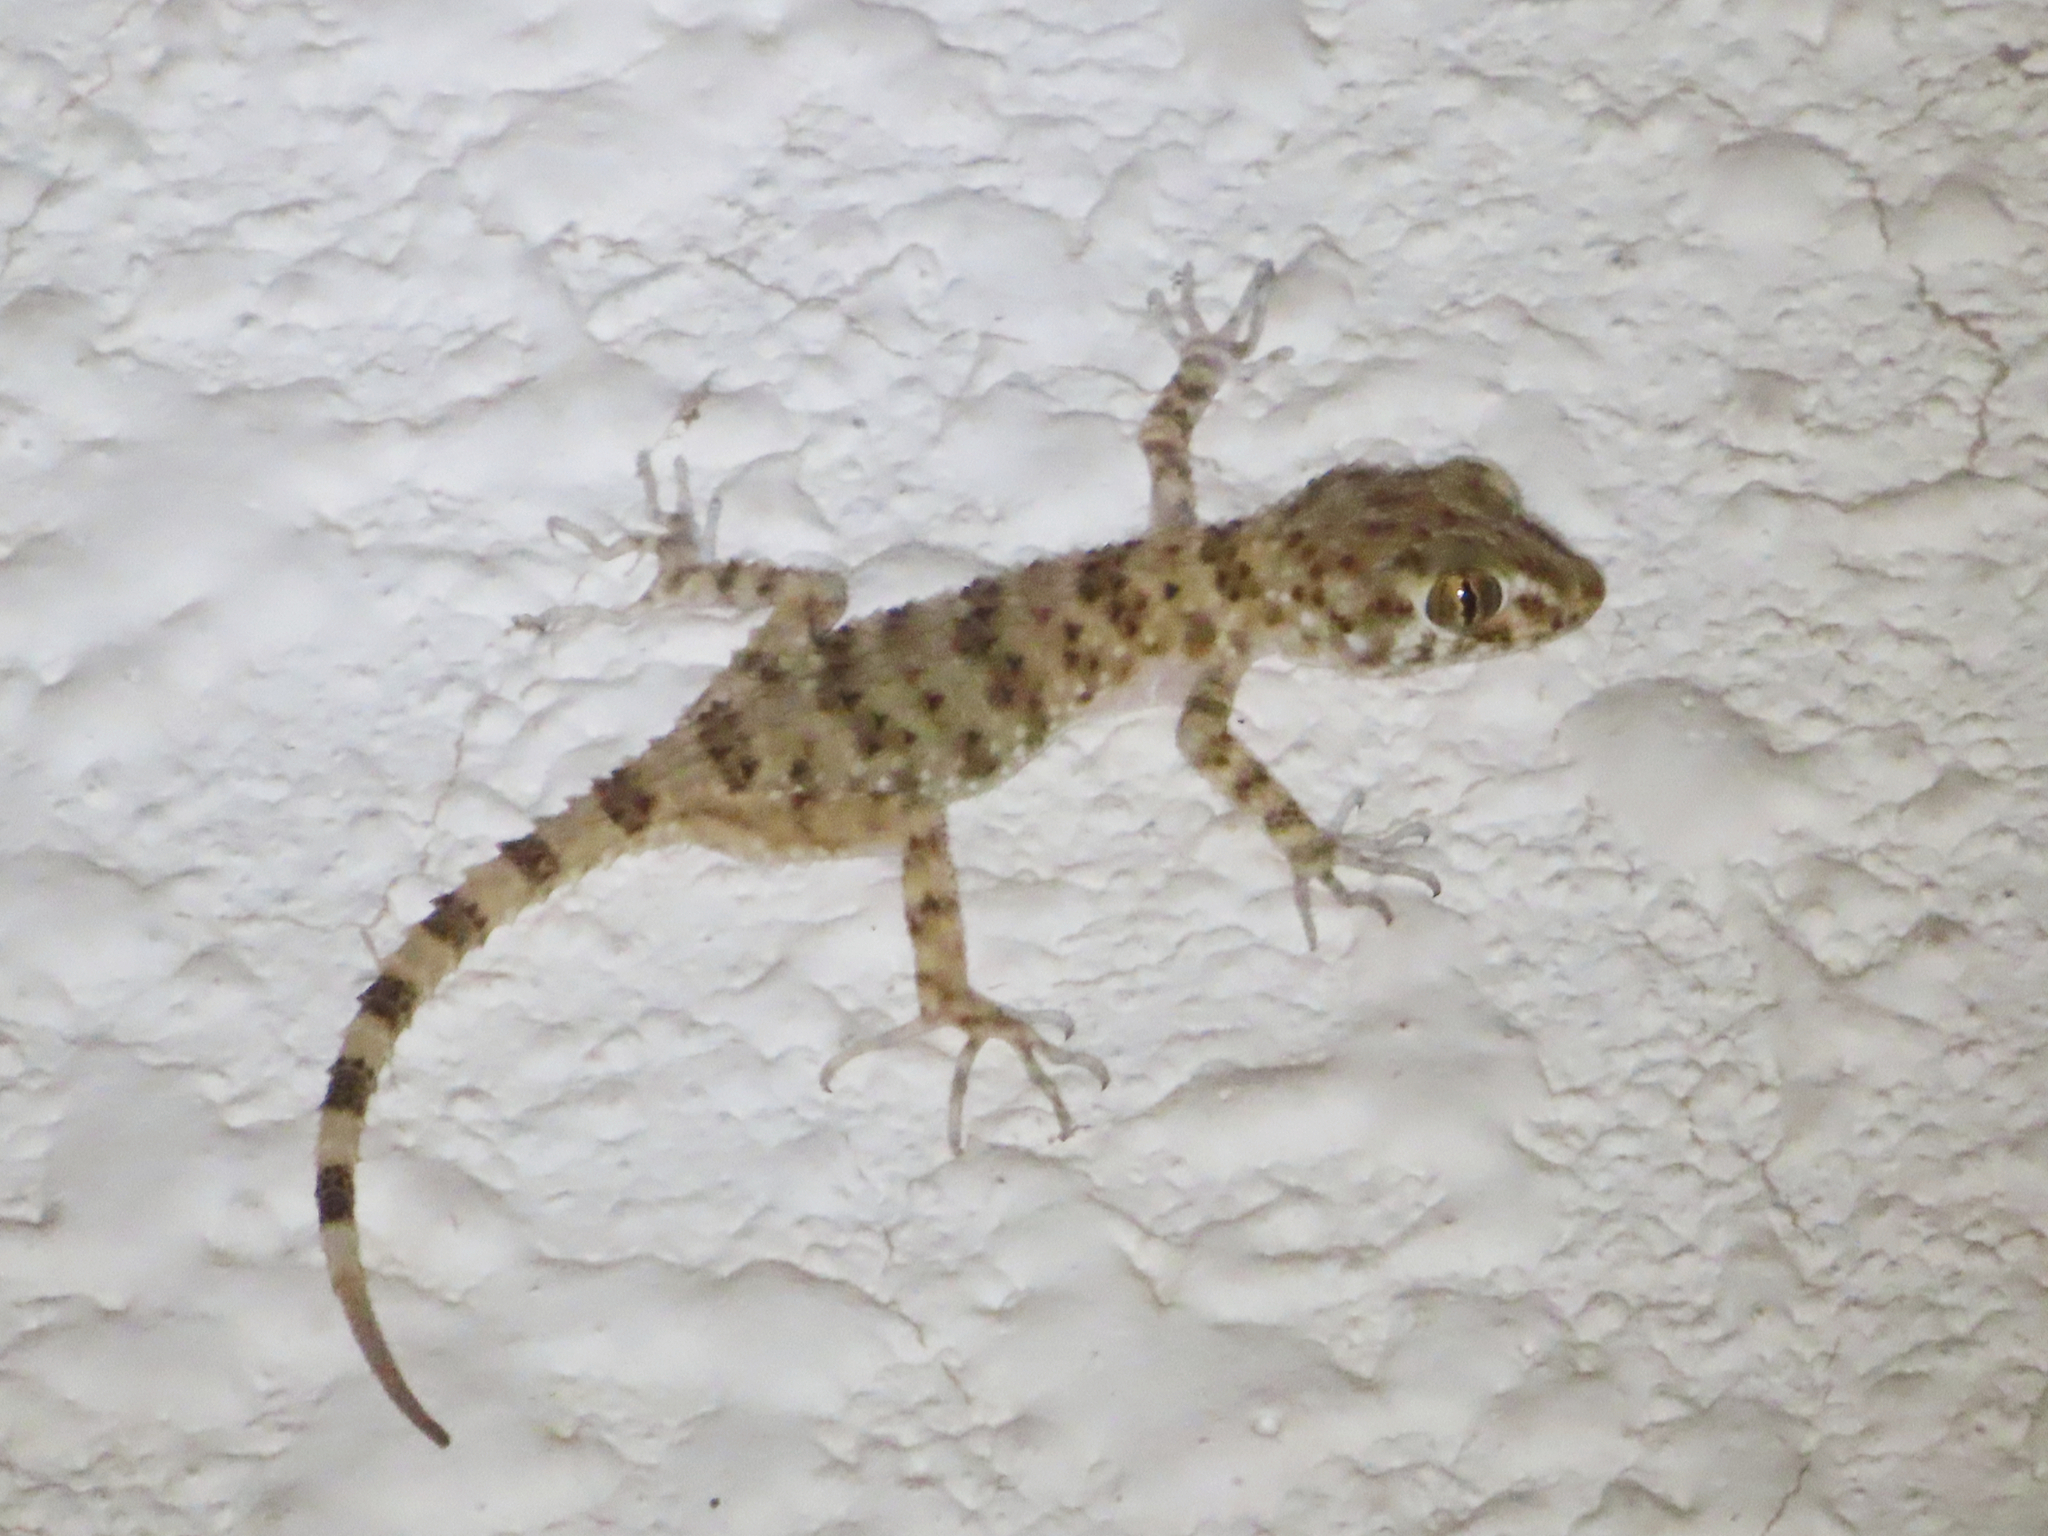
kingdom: Animalia
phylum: Chordata
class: Squamata
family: Gekkonidae
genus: Tenuidactylus
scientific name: Tenuidactylus caspius
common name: Caspian bent-toed gecko
